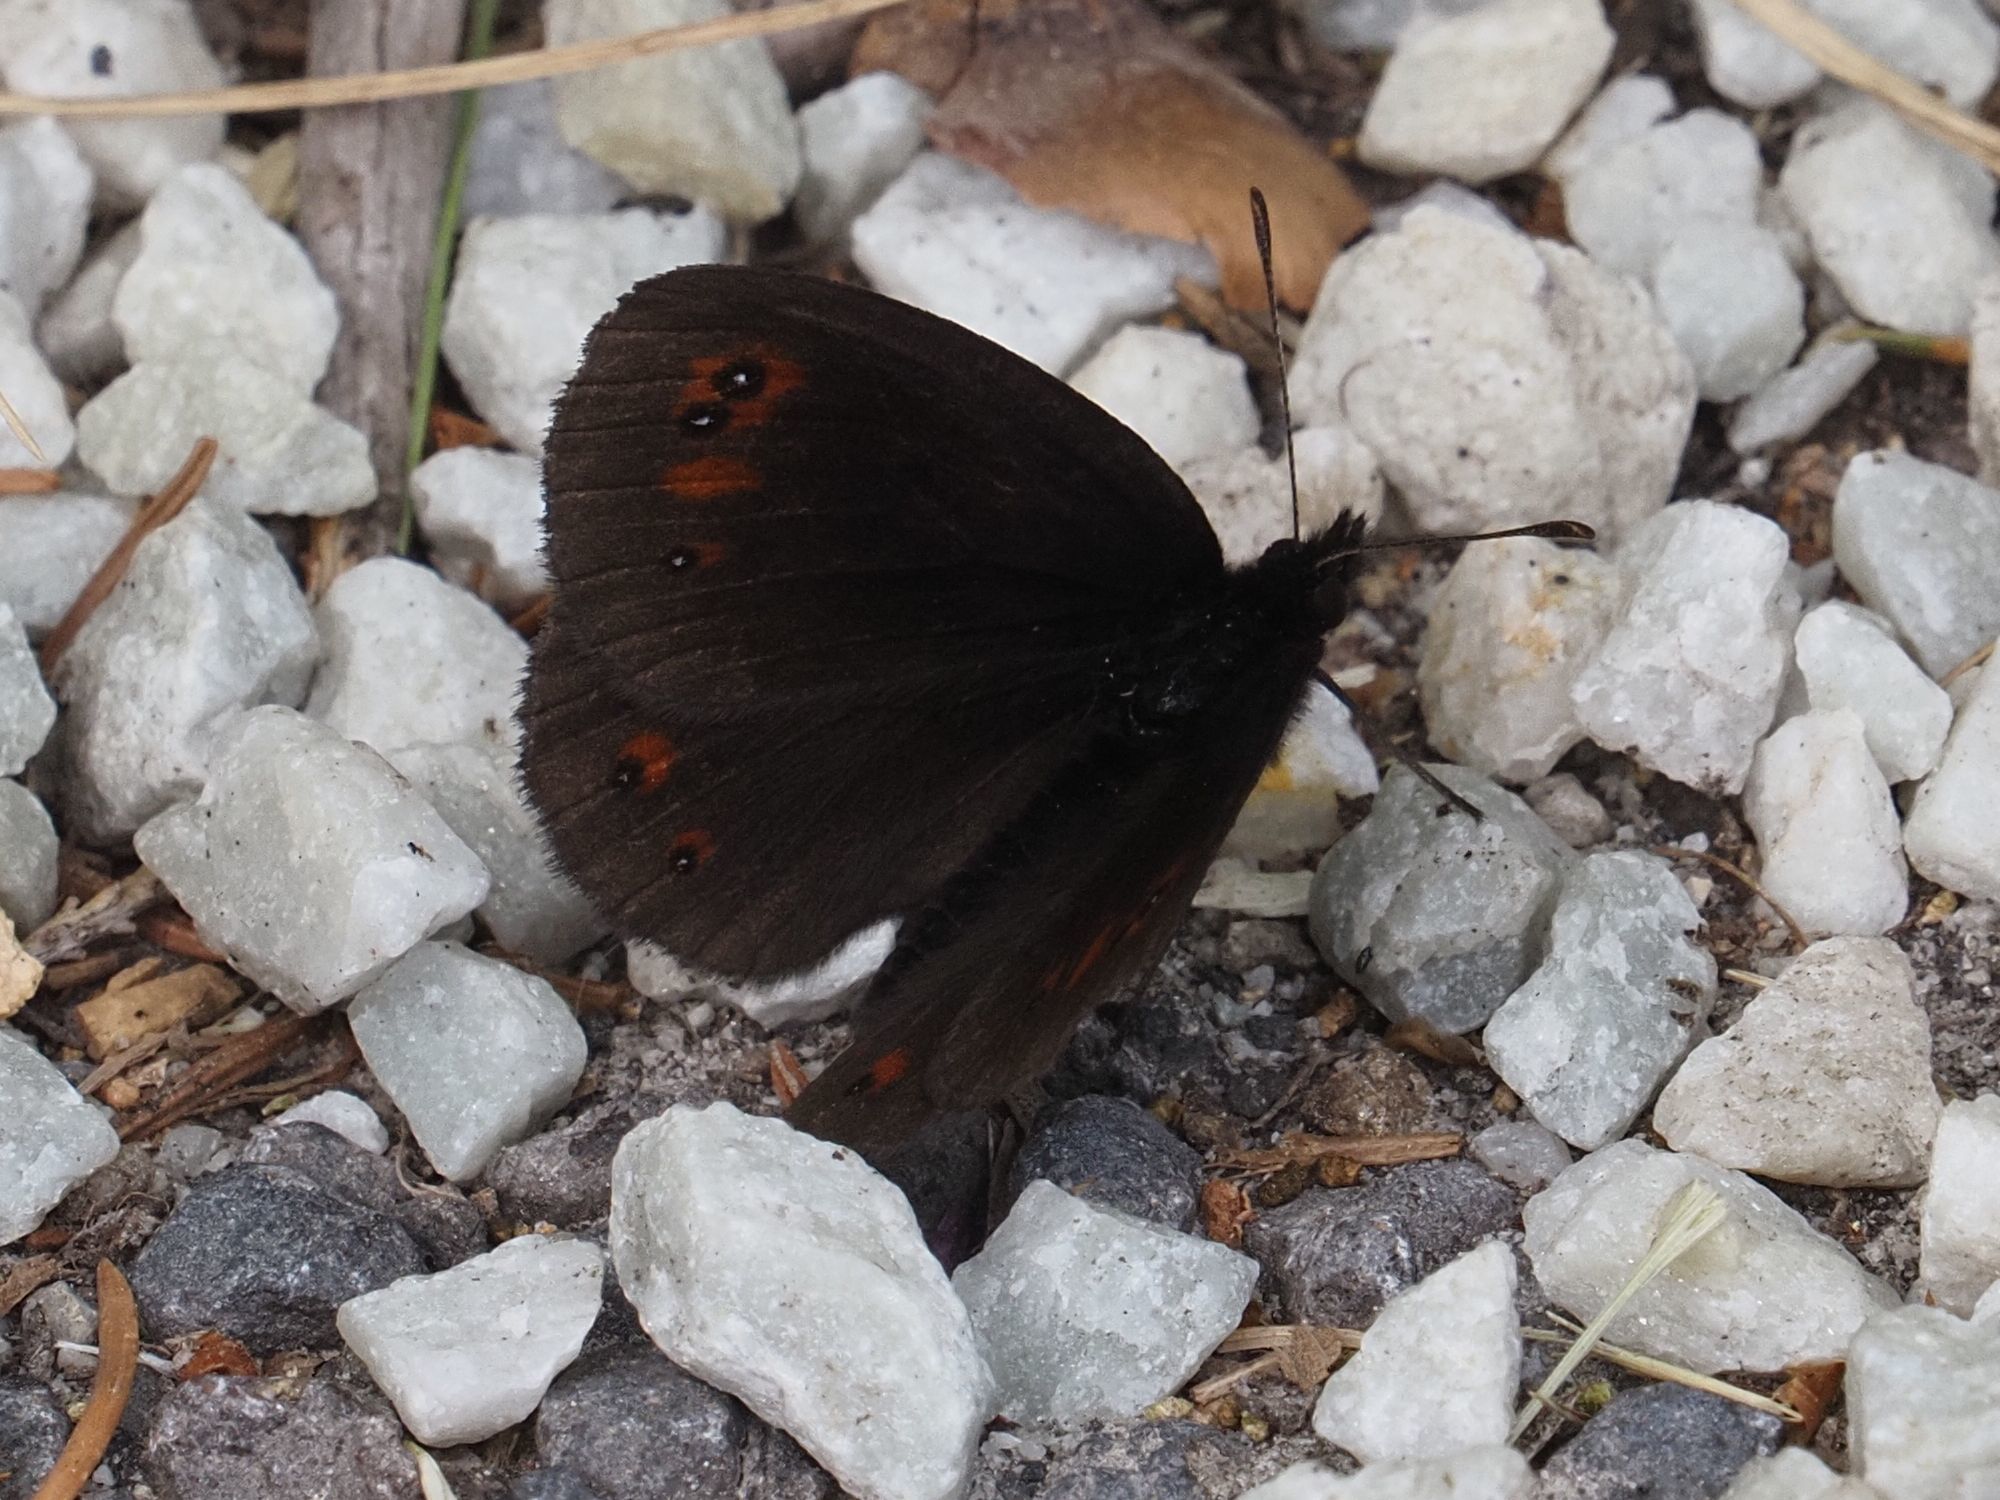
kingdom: Animalia
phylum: Arthropoda
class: Insecta
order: Lepidoptera
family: Nymphalidae
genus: Erebia
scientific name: Erebia meolans
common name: Piedmont ringlet
